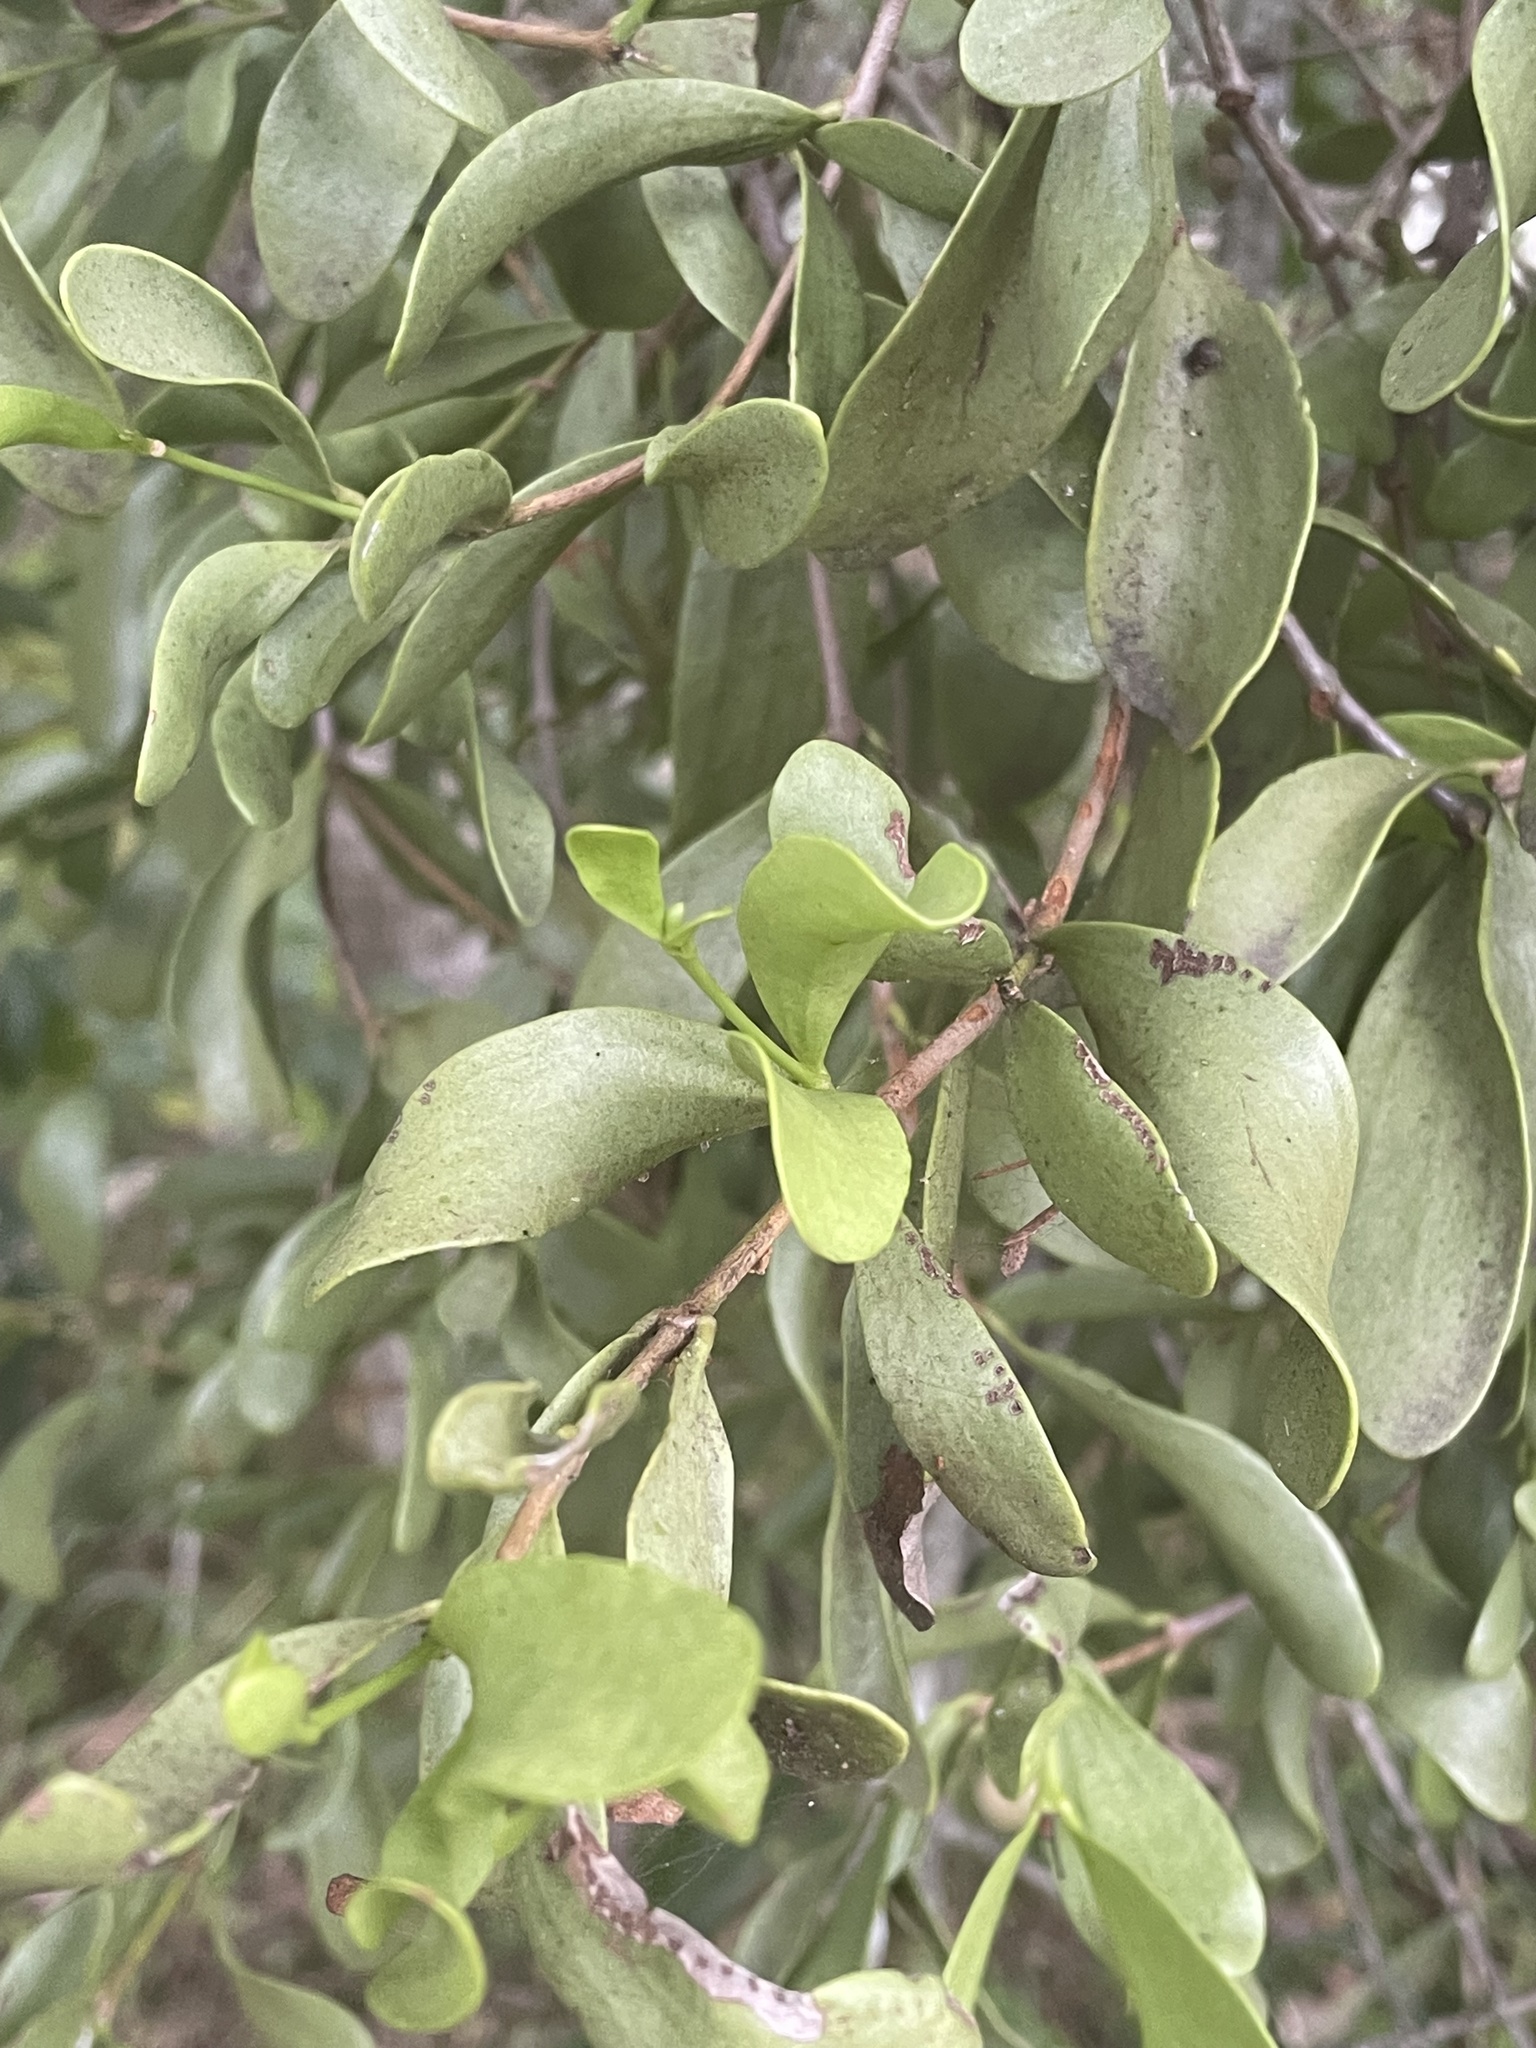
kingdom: Plantae
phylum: Tracheophyta
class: Magnoliopsida
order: Santalales
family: Loranthaceae
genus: Amyema
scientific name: Amyema conspicua
